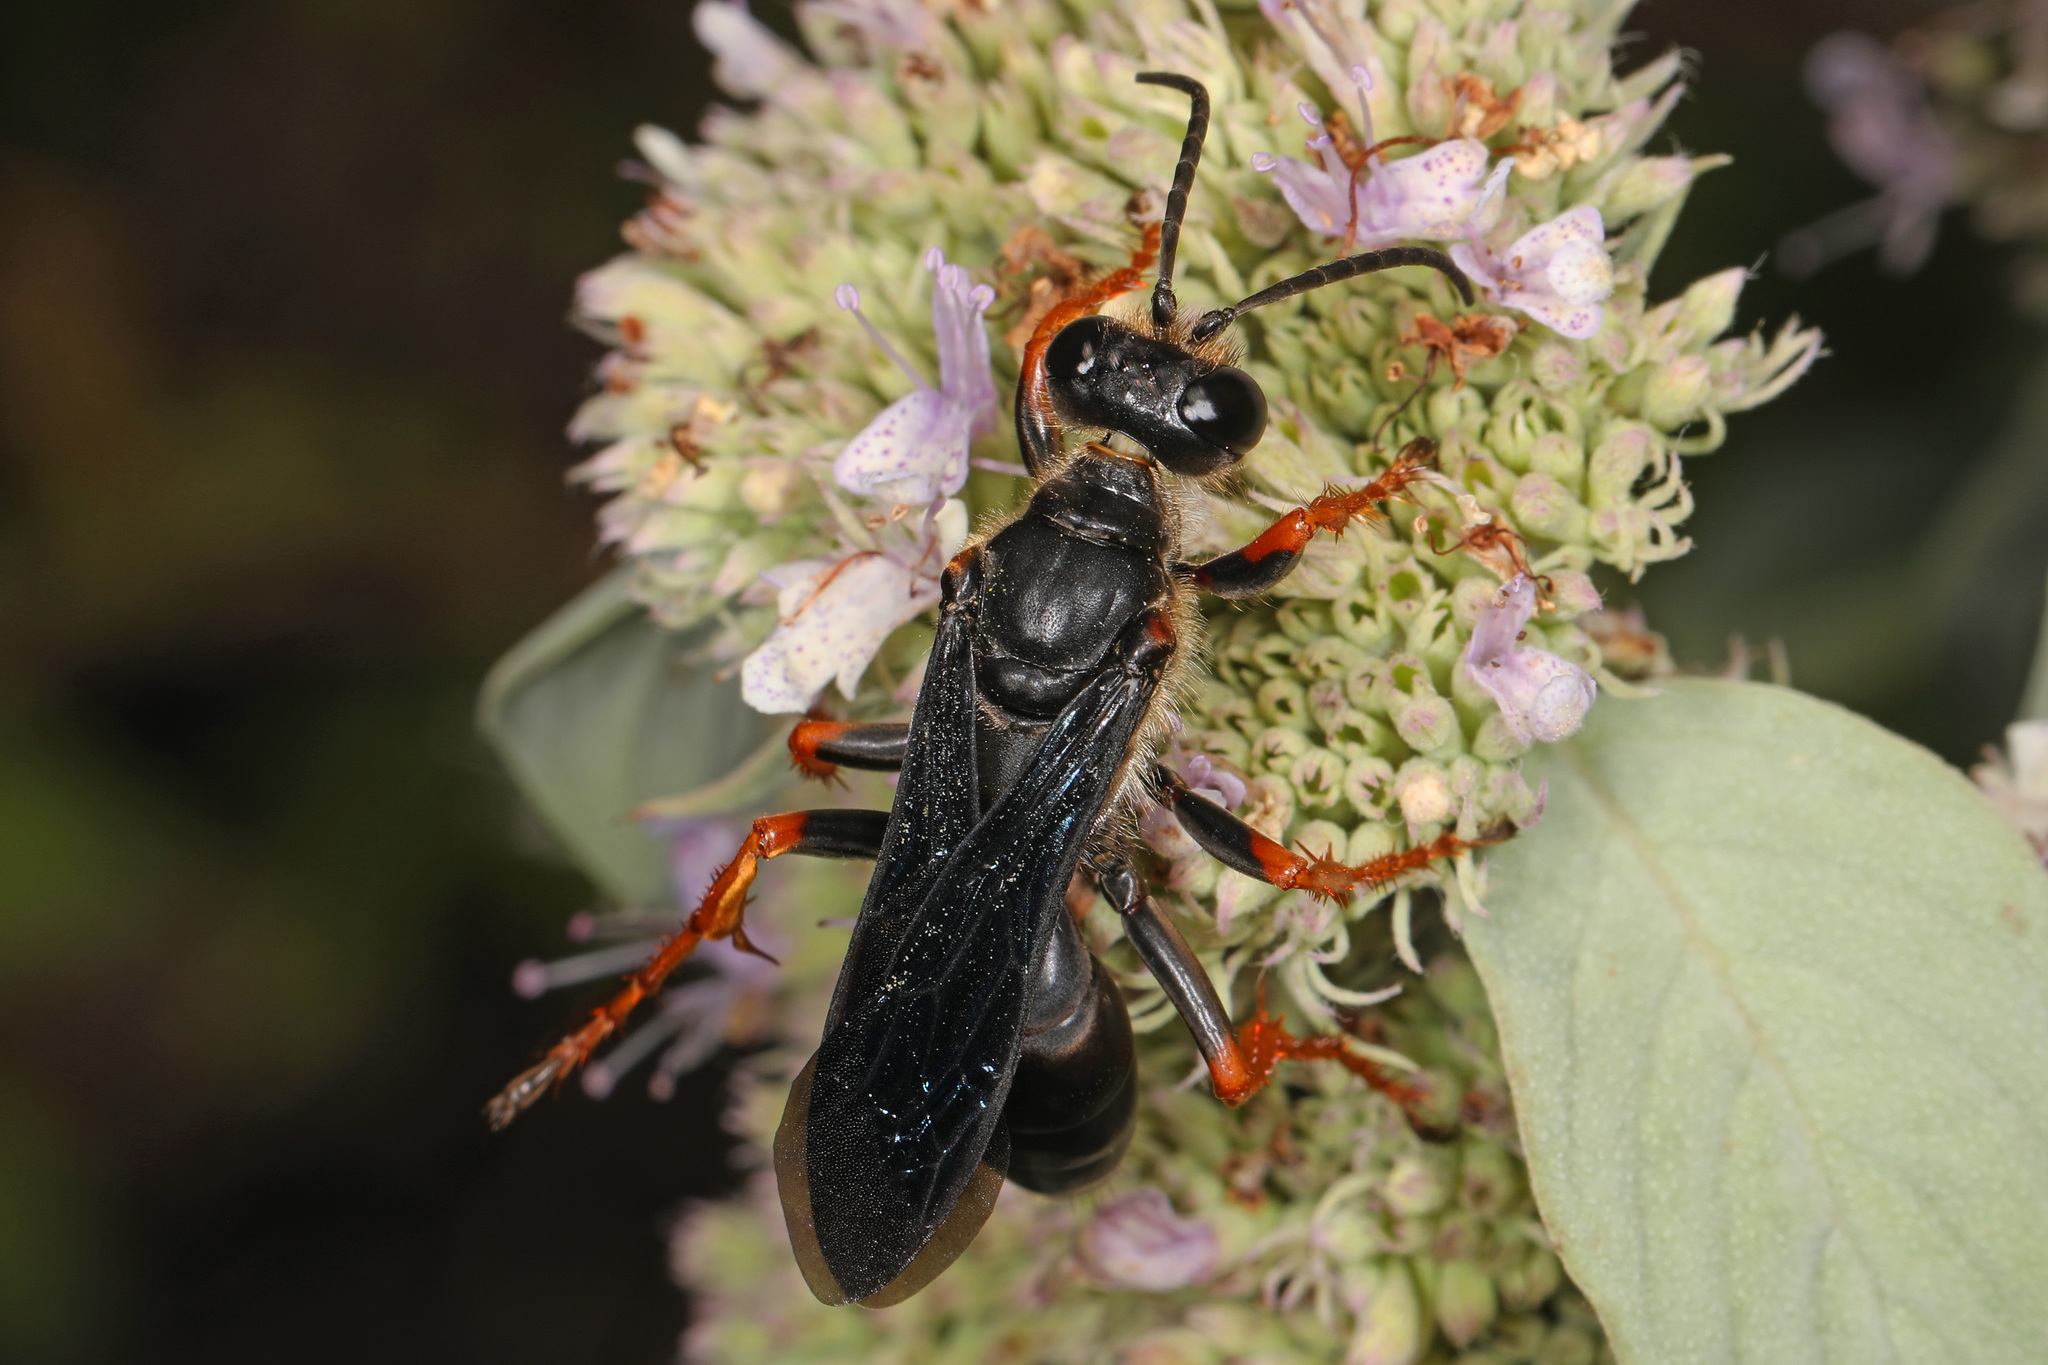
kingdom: Animalia
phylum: Arthropoda
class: Insecta
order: Hymenoptera
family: Sphecidae
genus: Sphex
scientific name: Sphex nudus
